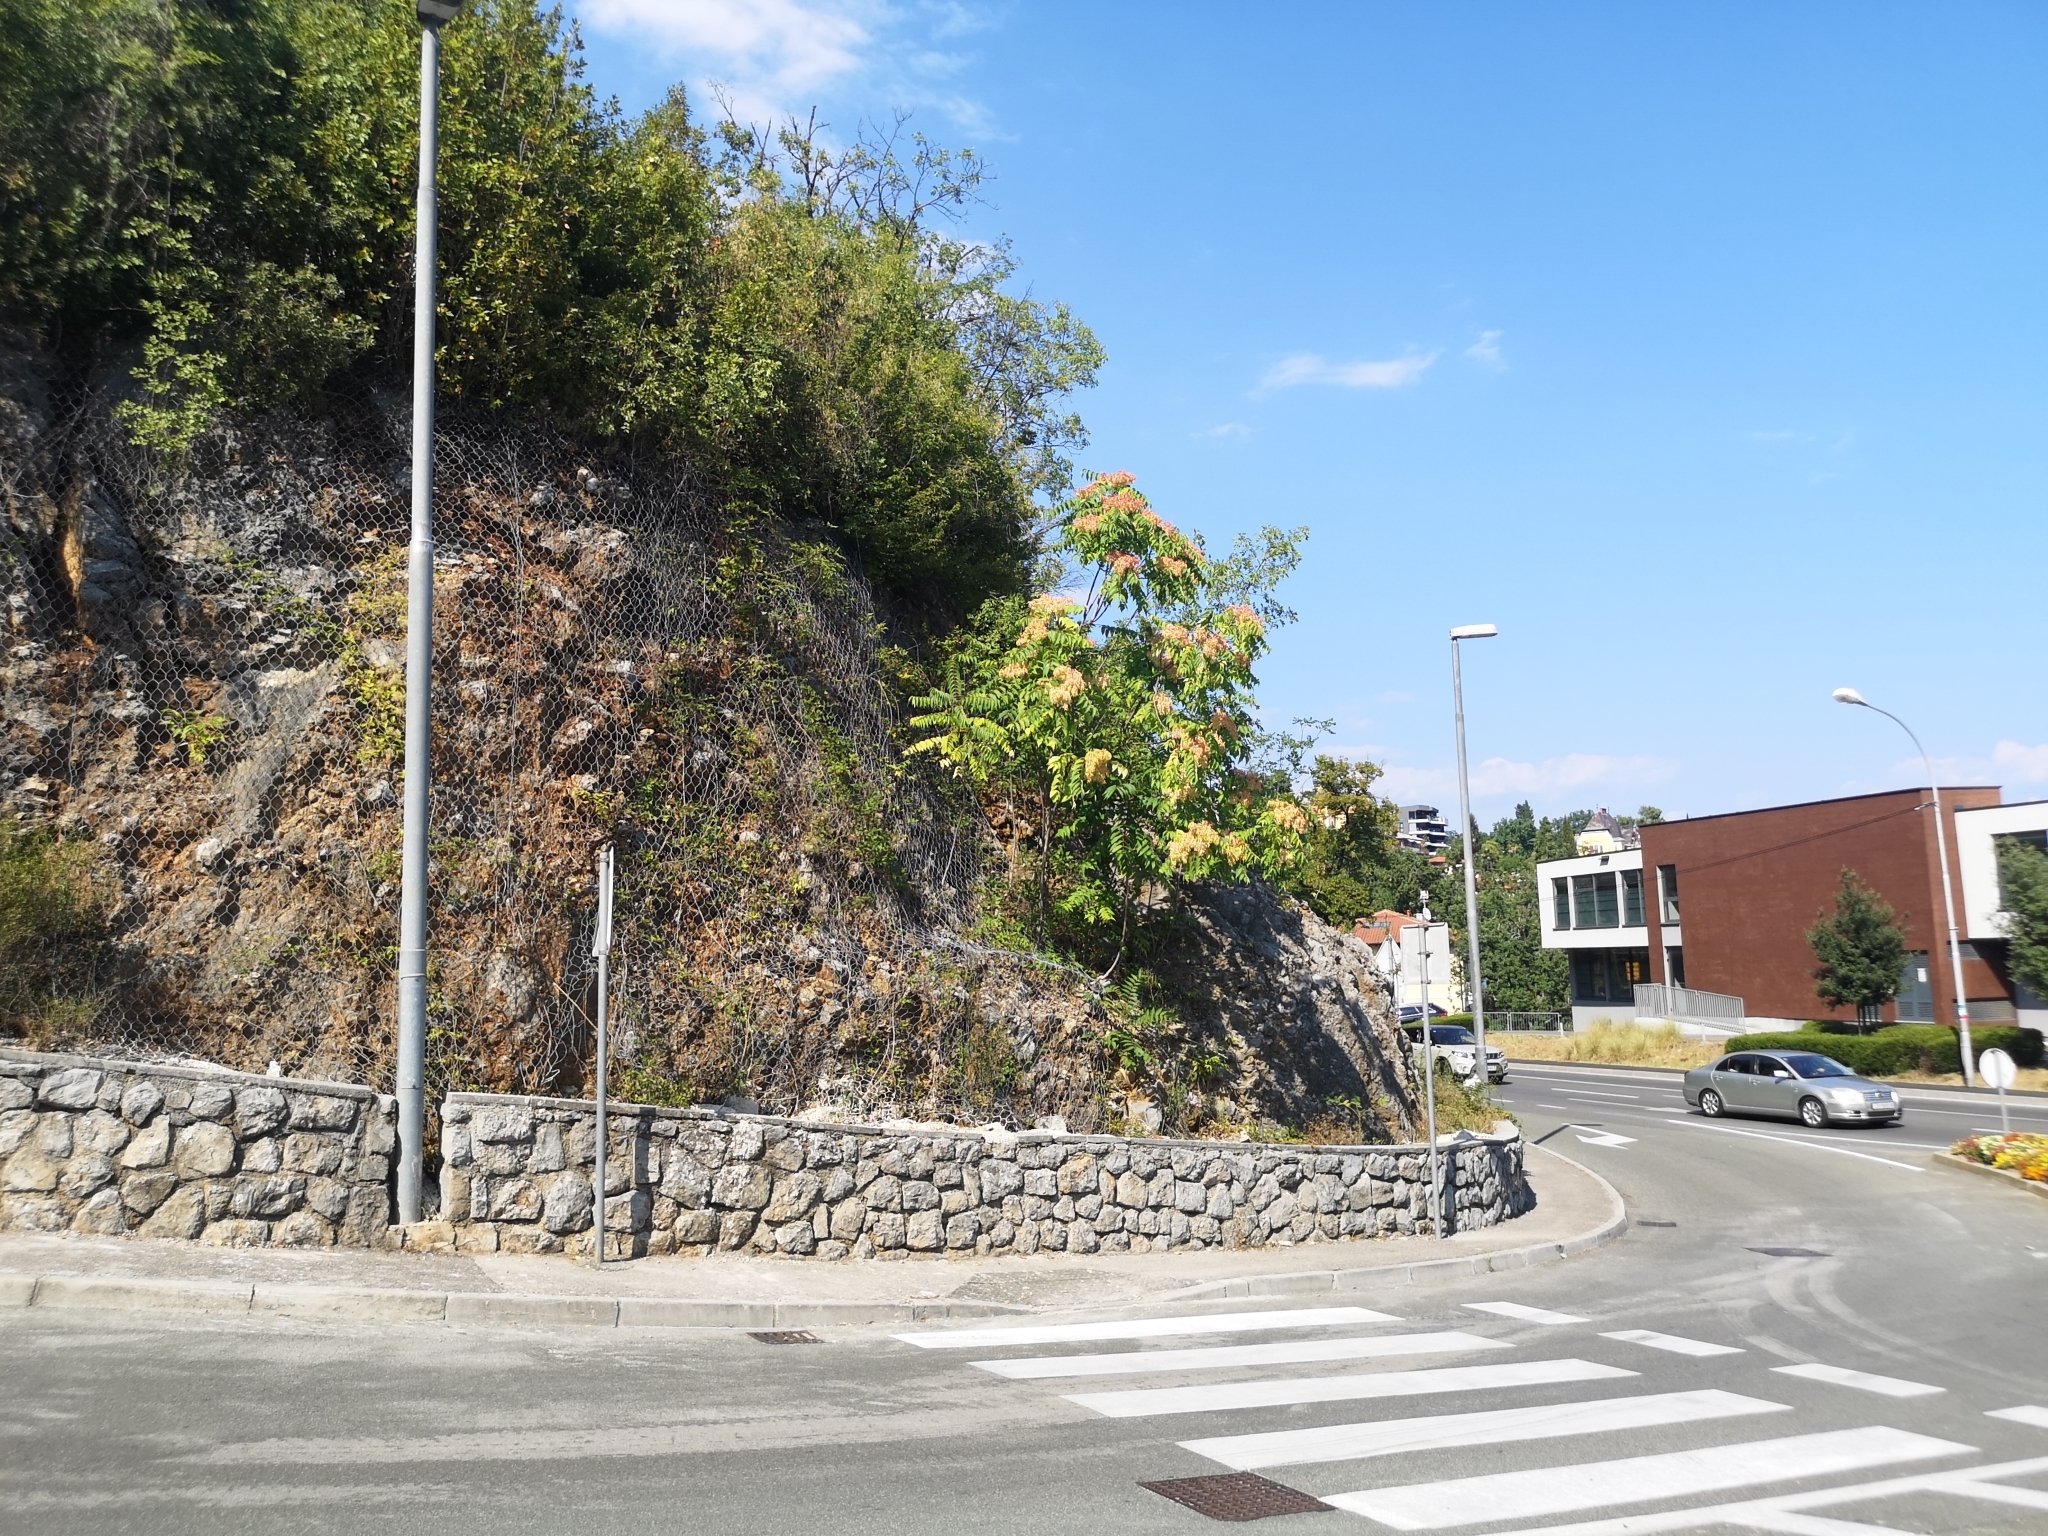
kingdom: Plantae
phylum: Tracheophyta
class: Magnoliopsida
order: Sapindales
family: Simaroubaceae
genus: Ailanthus
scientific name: Ailanthus altissima
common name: Tree-of-heaven
